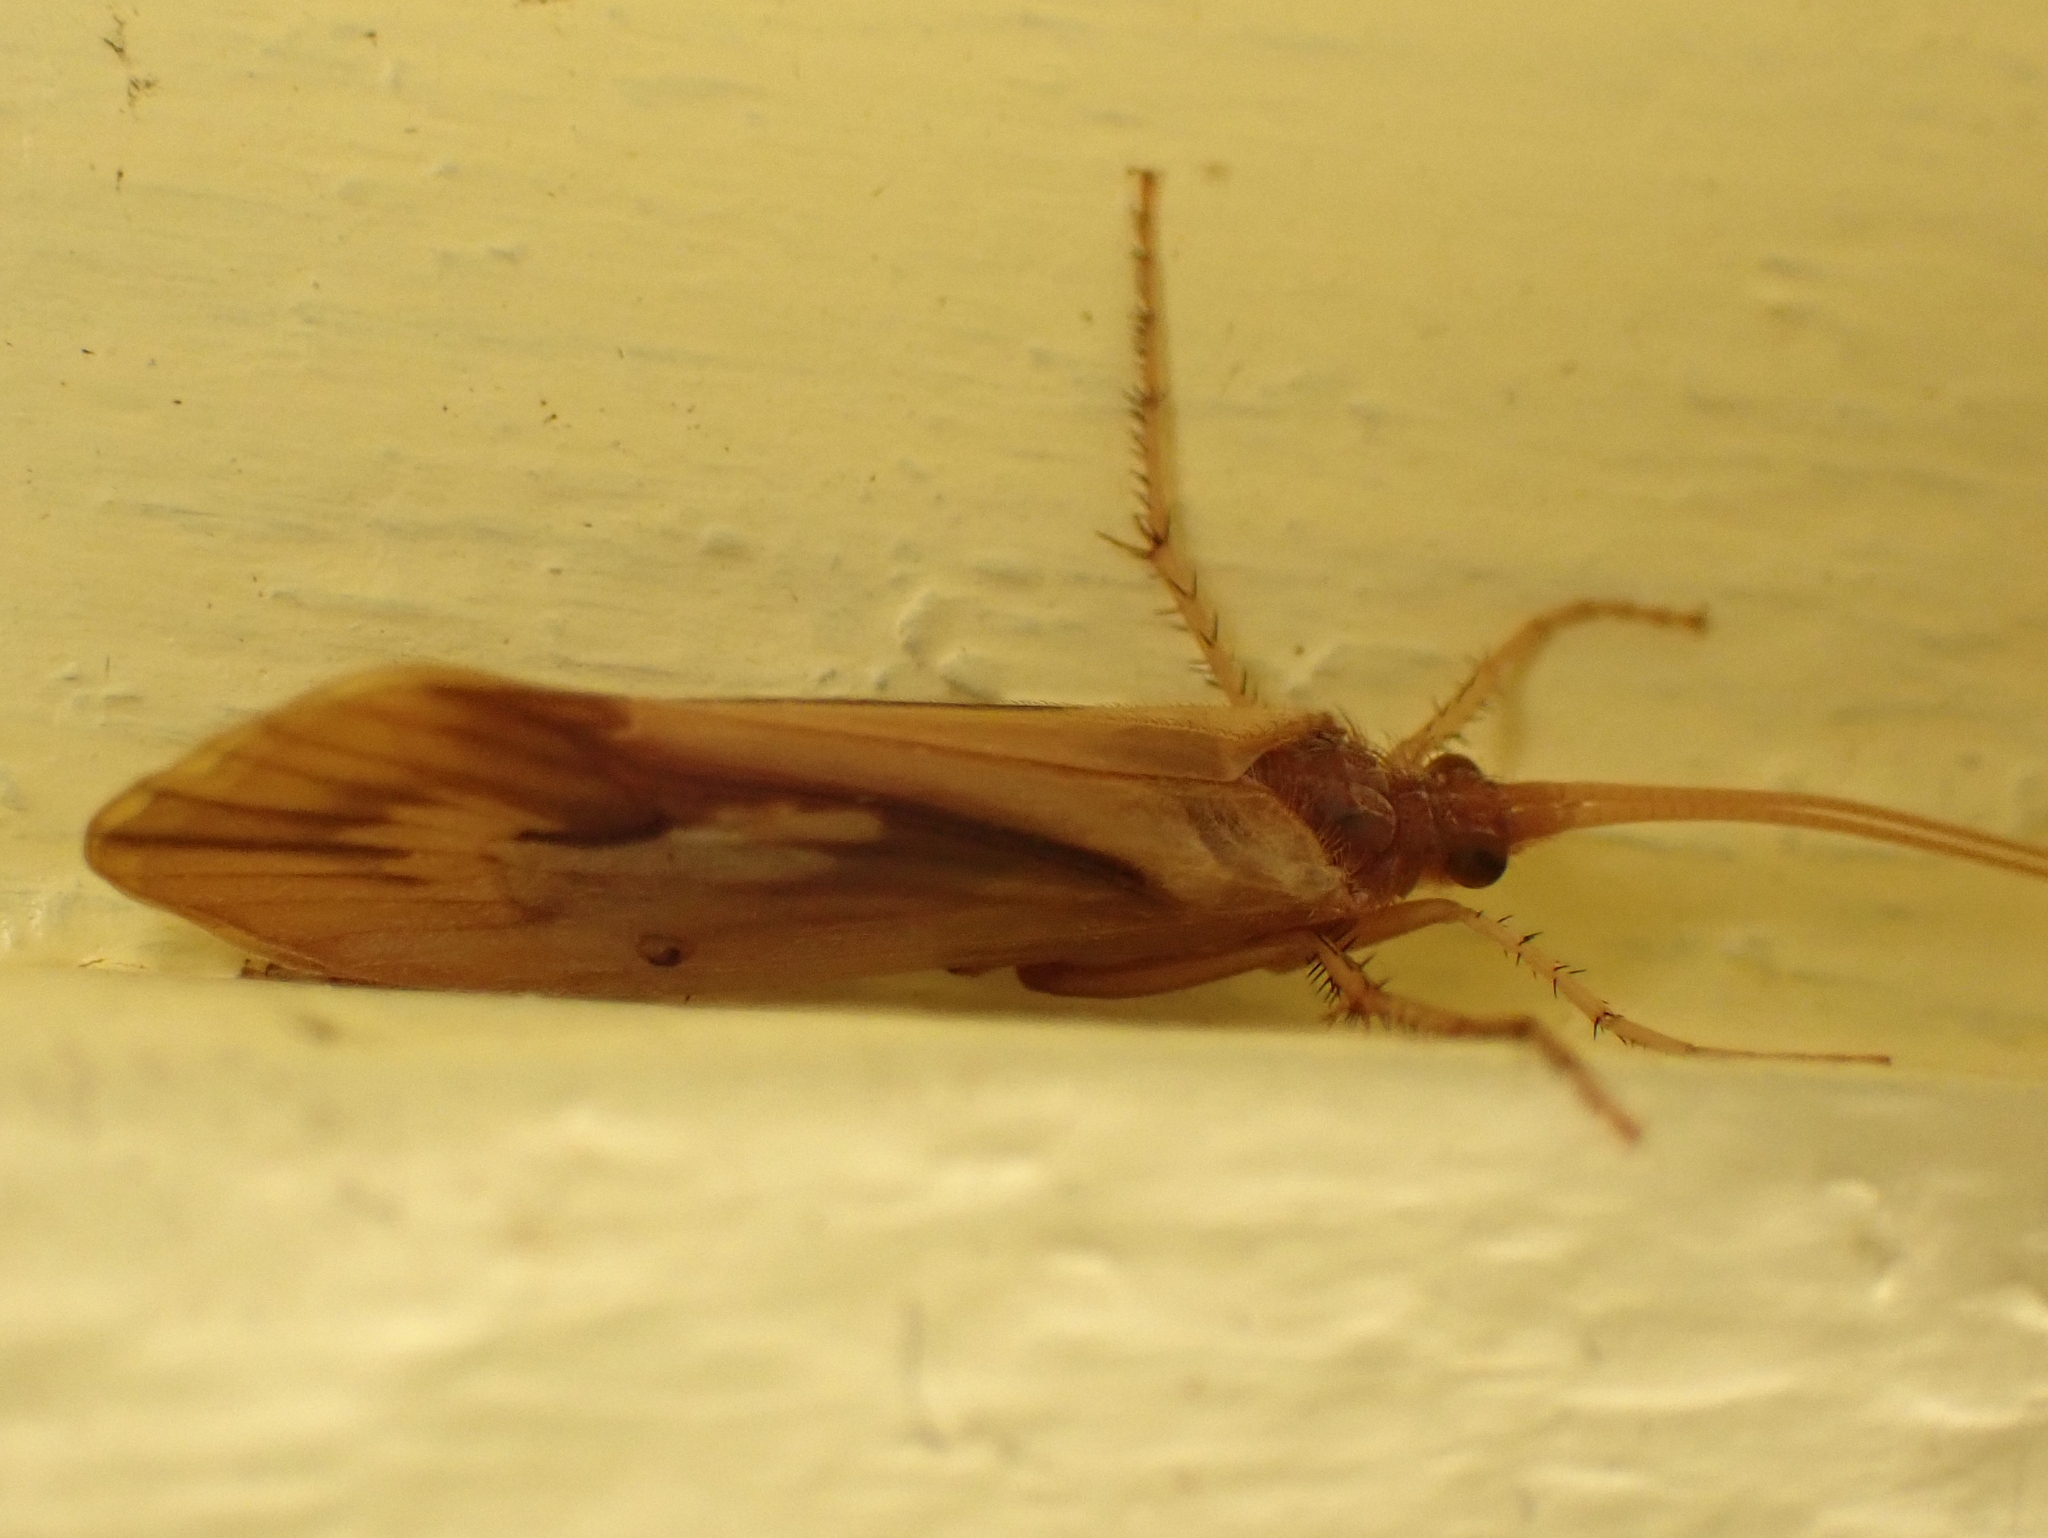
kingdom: Animalia
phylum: Arthropoda
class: Insecta
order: Trichoptera
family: Limnephilidae
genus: Platycentropus
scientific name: Platycentropus radiatus
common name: Chocolate-and-cream sedge
